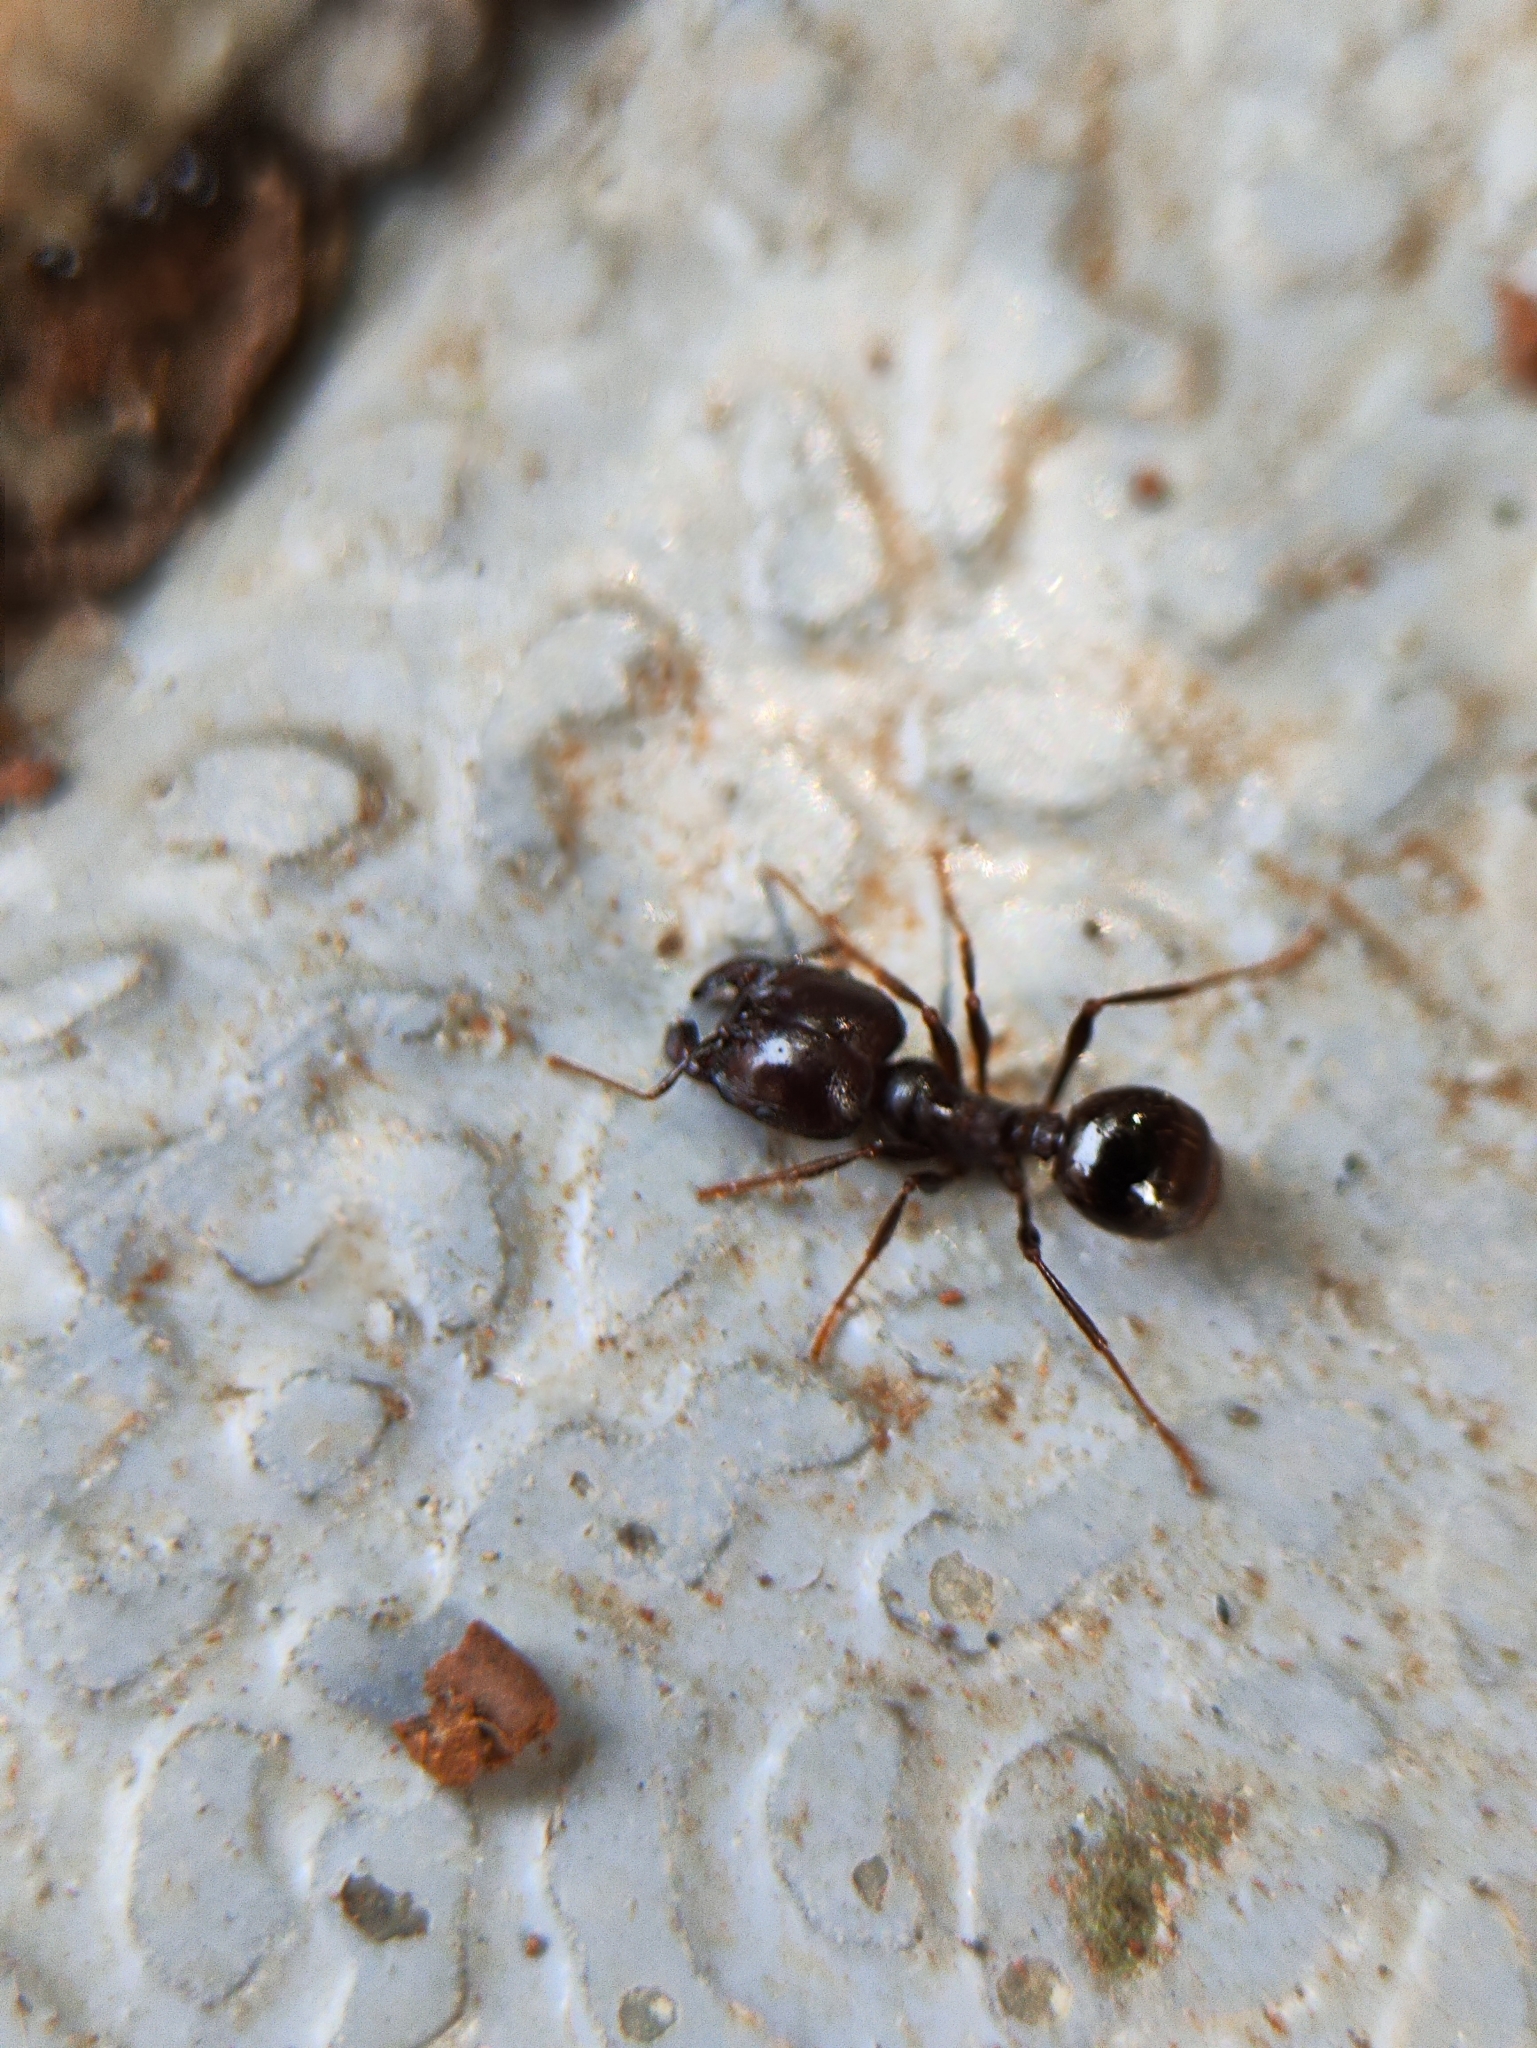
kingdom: Animalia
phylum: Arthropoda
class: Insecta
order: Hymenoptera
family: Formicidae
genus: Pheidologeton
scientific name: Pheidologeton diversus
